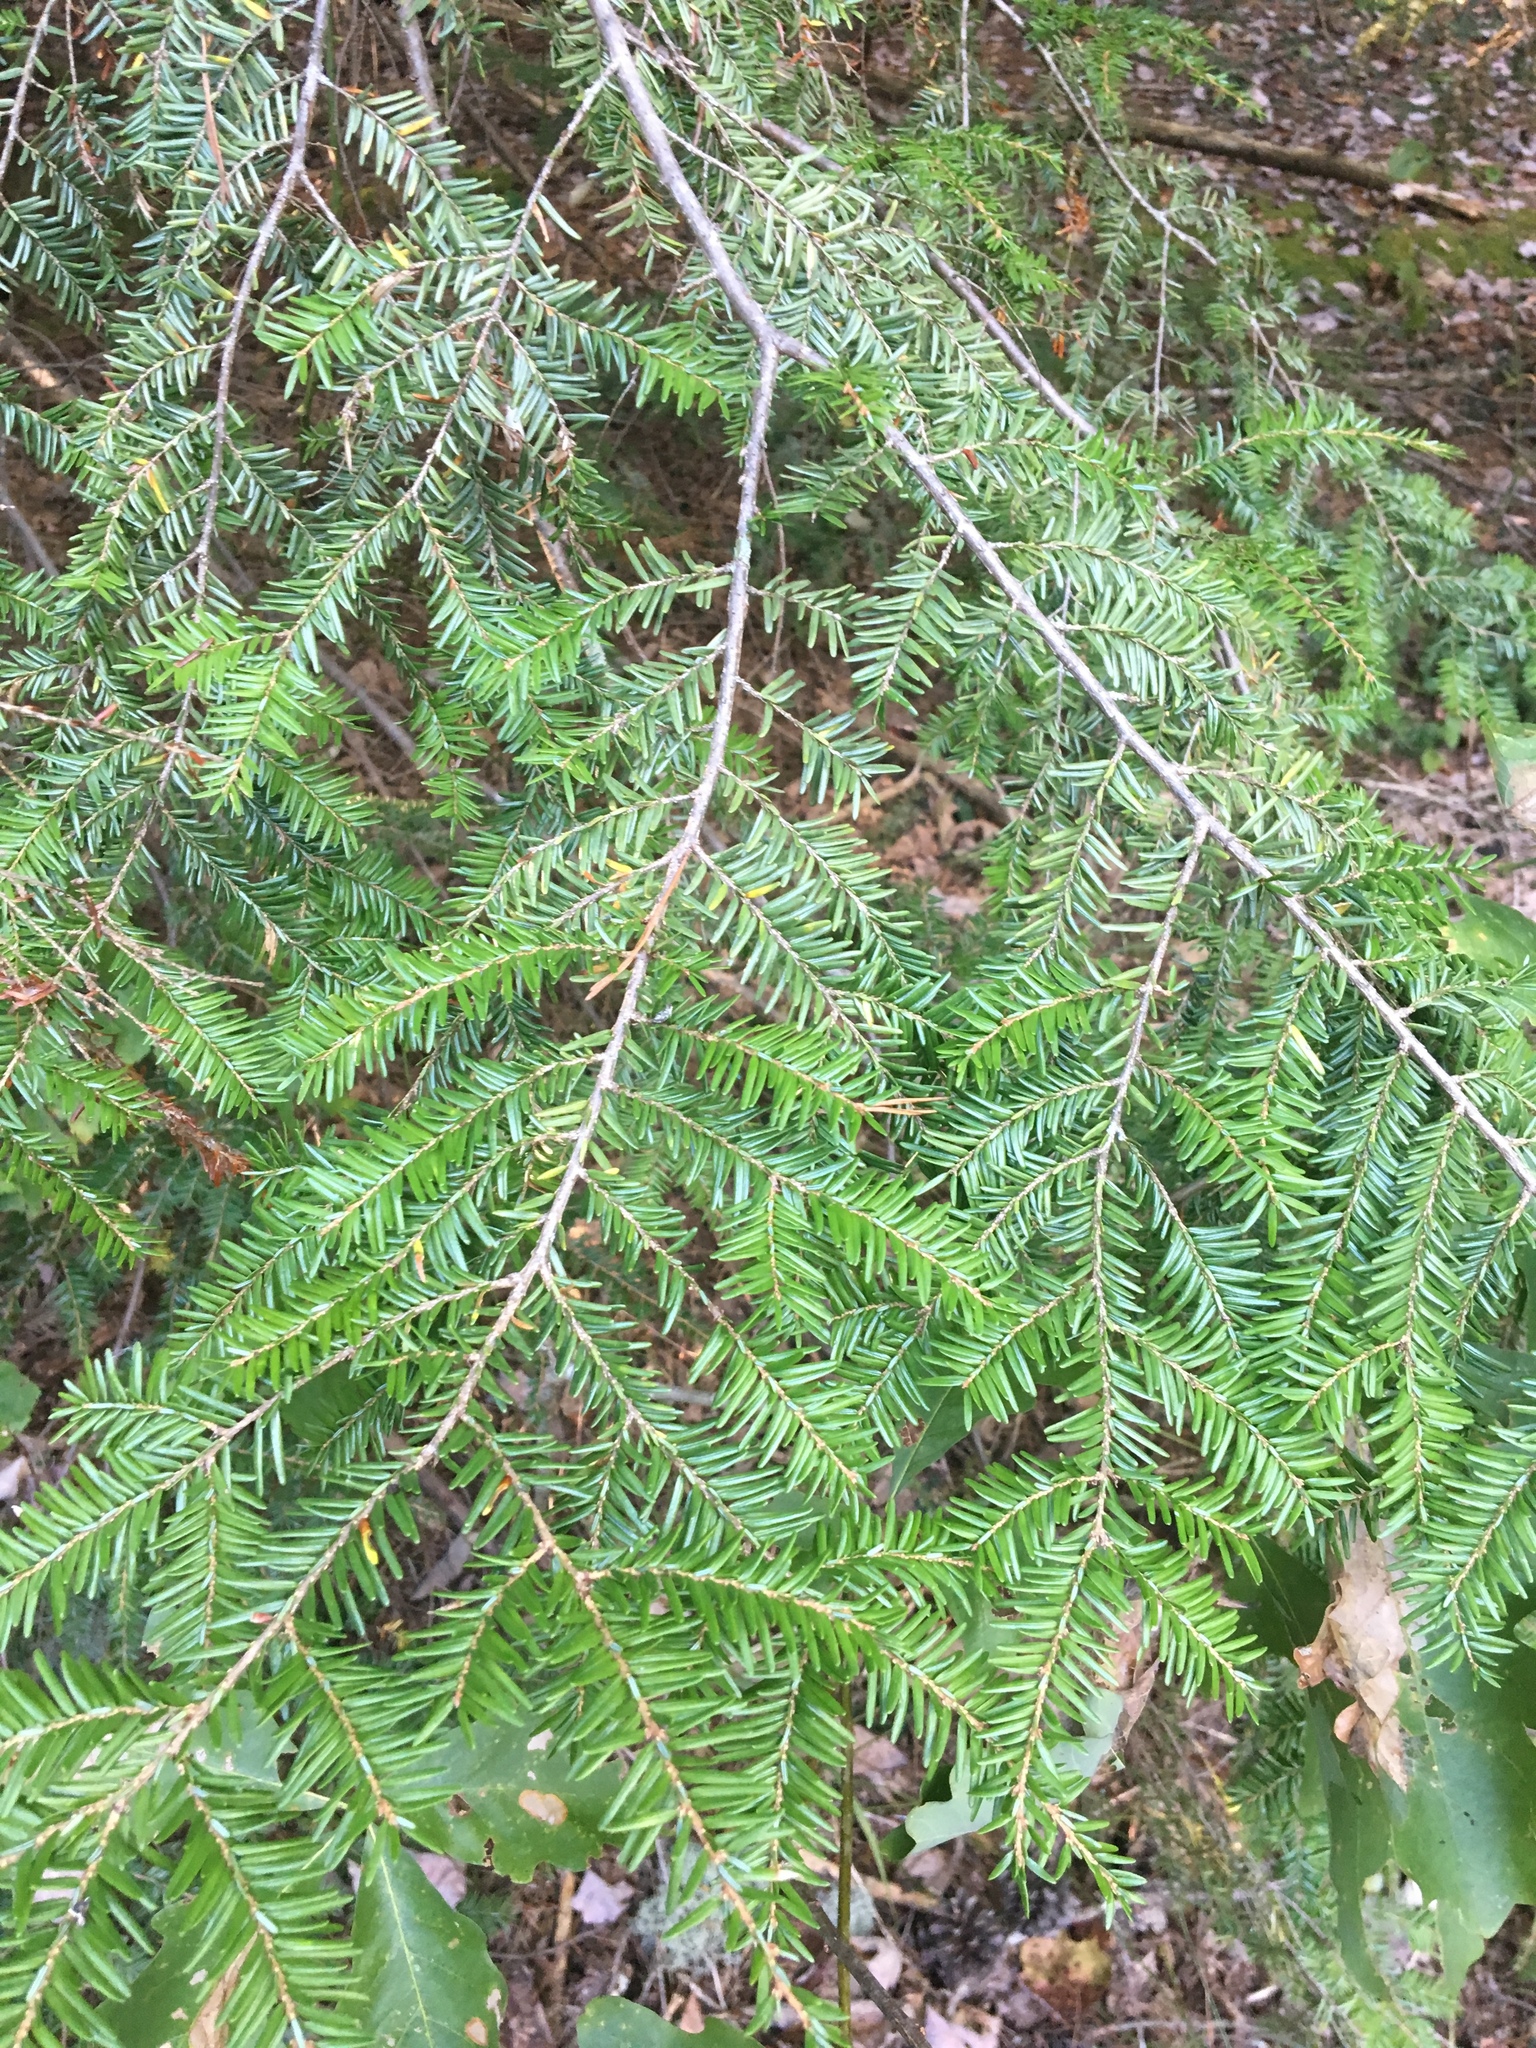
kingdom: Plantae
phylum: Tracheophyta
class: Pinopsida
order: Pinales
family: Pinaceae
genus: Tsuga
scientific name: Tsuga canadensis
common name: Eastern hemlock
